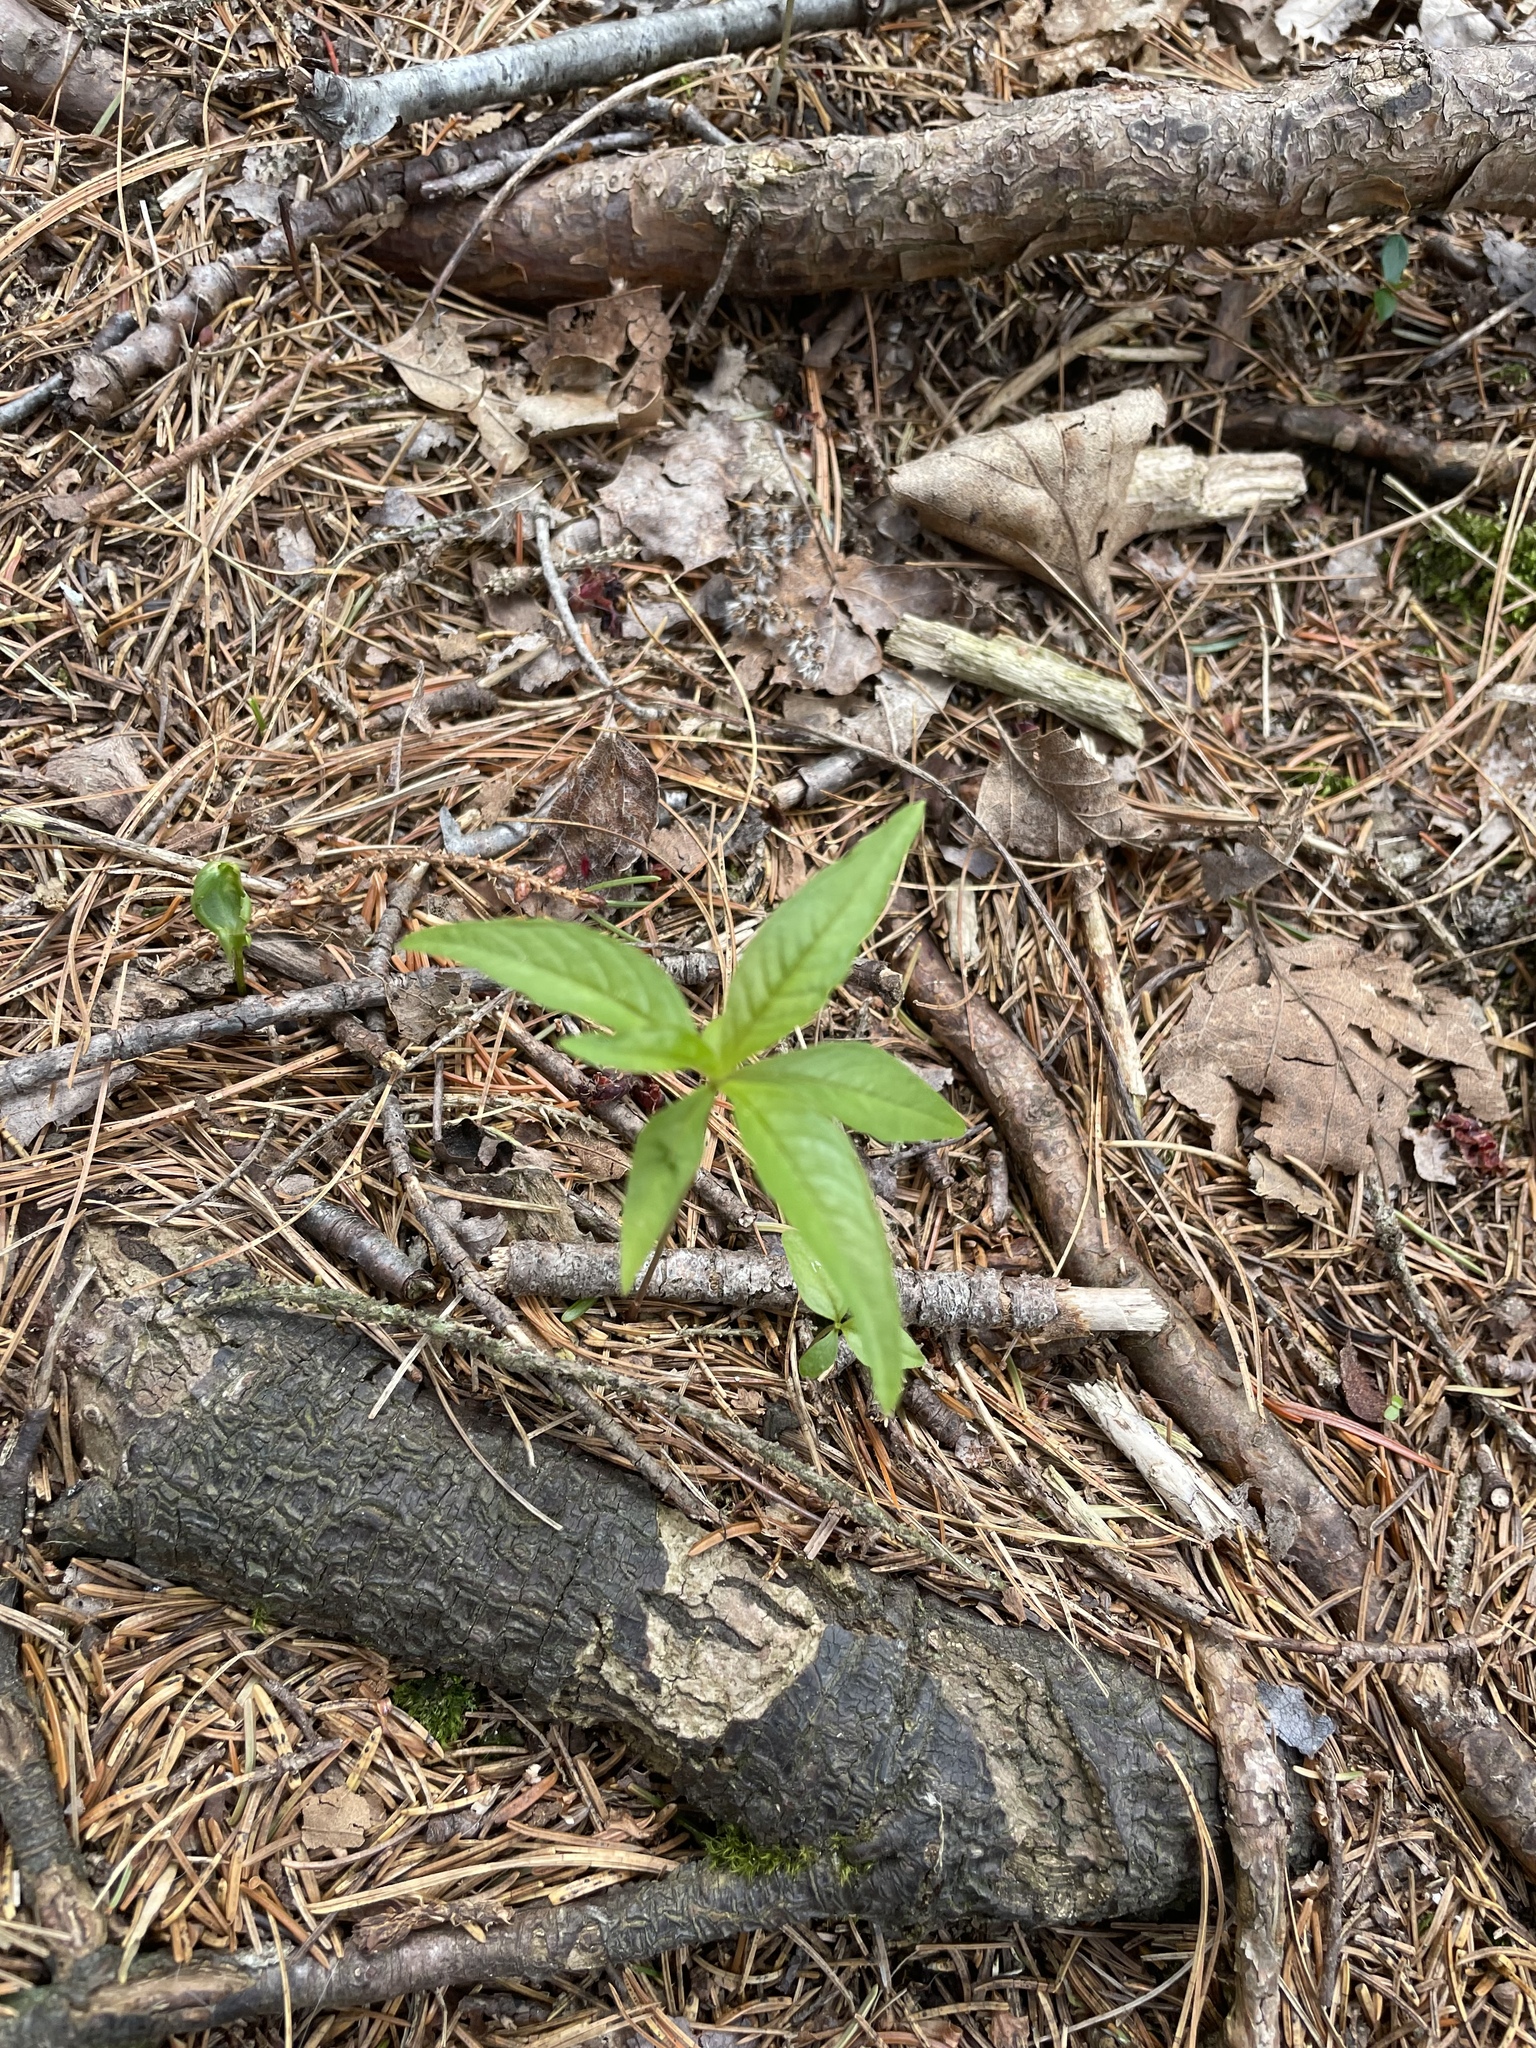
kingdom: Plantae
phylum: Tracheophyta
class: Magnoliopsida
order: Ericales
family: Primulaceae
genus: Lysimachia
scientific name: Lysimachia borealis
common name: American starflower
